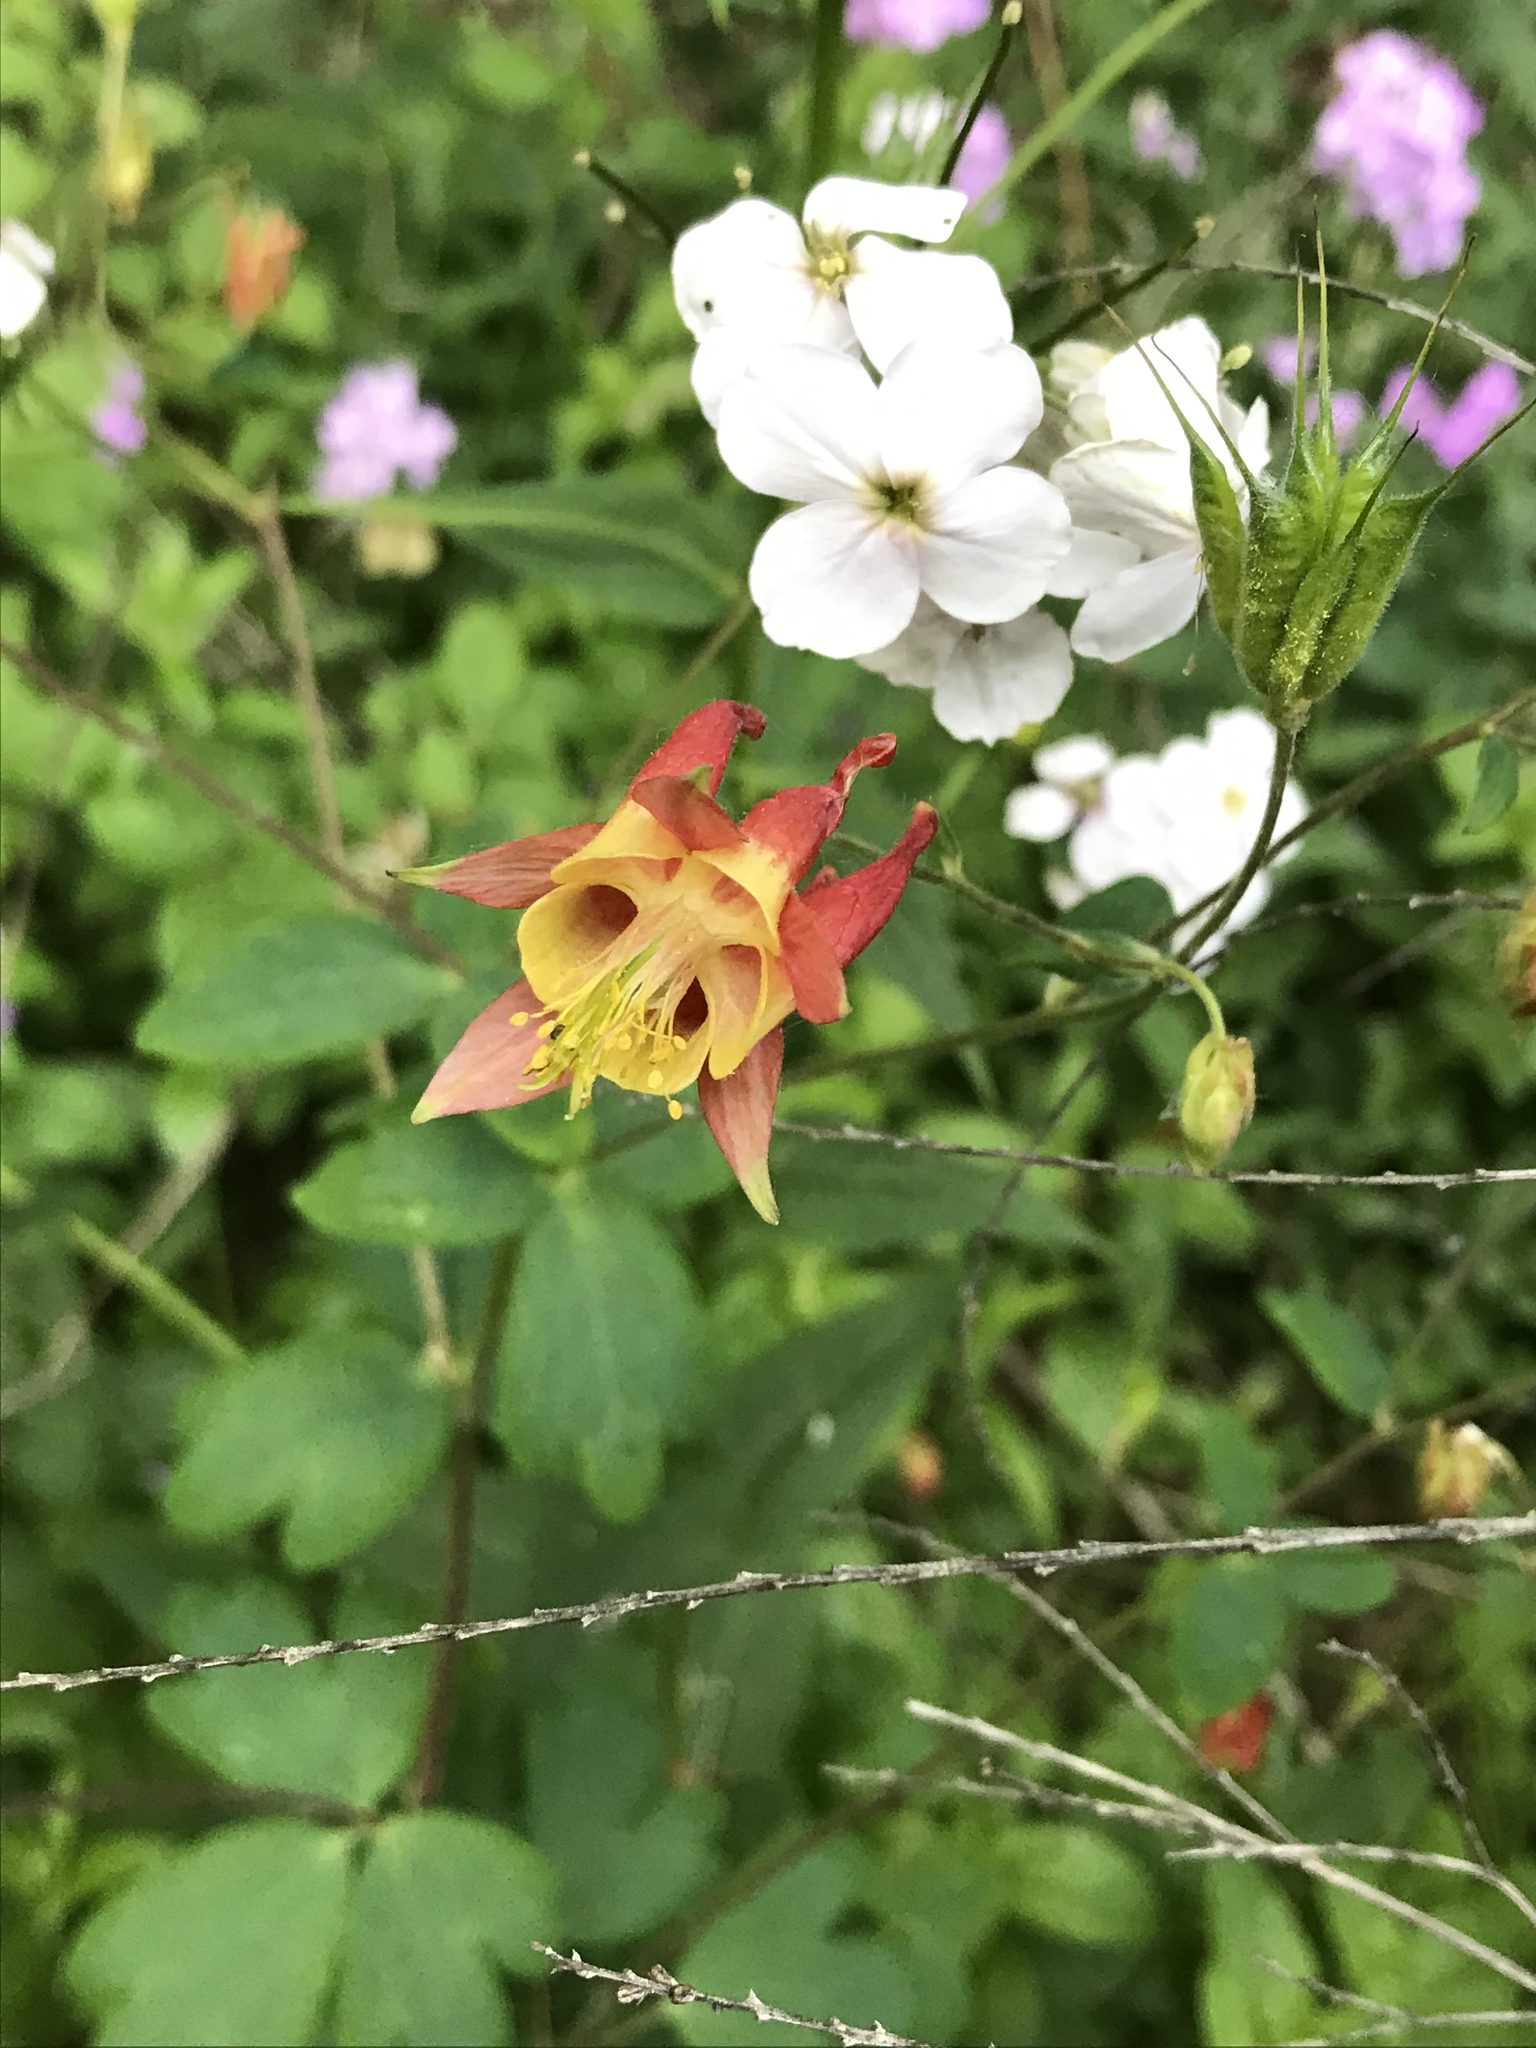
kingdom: Plantae
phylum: Tracheophyta
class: Magnoliopsida
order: Ranunculales
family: Ranunculaceae
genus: Aquilegia
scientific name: Aquilegia canadensis
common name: American columbine
